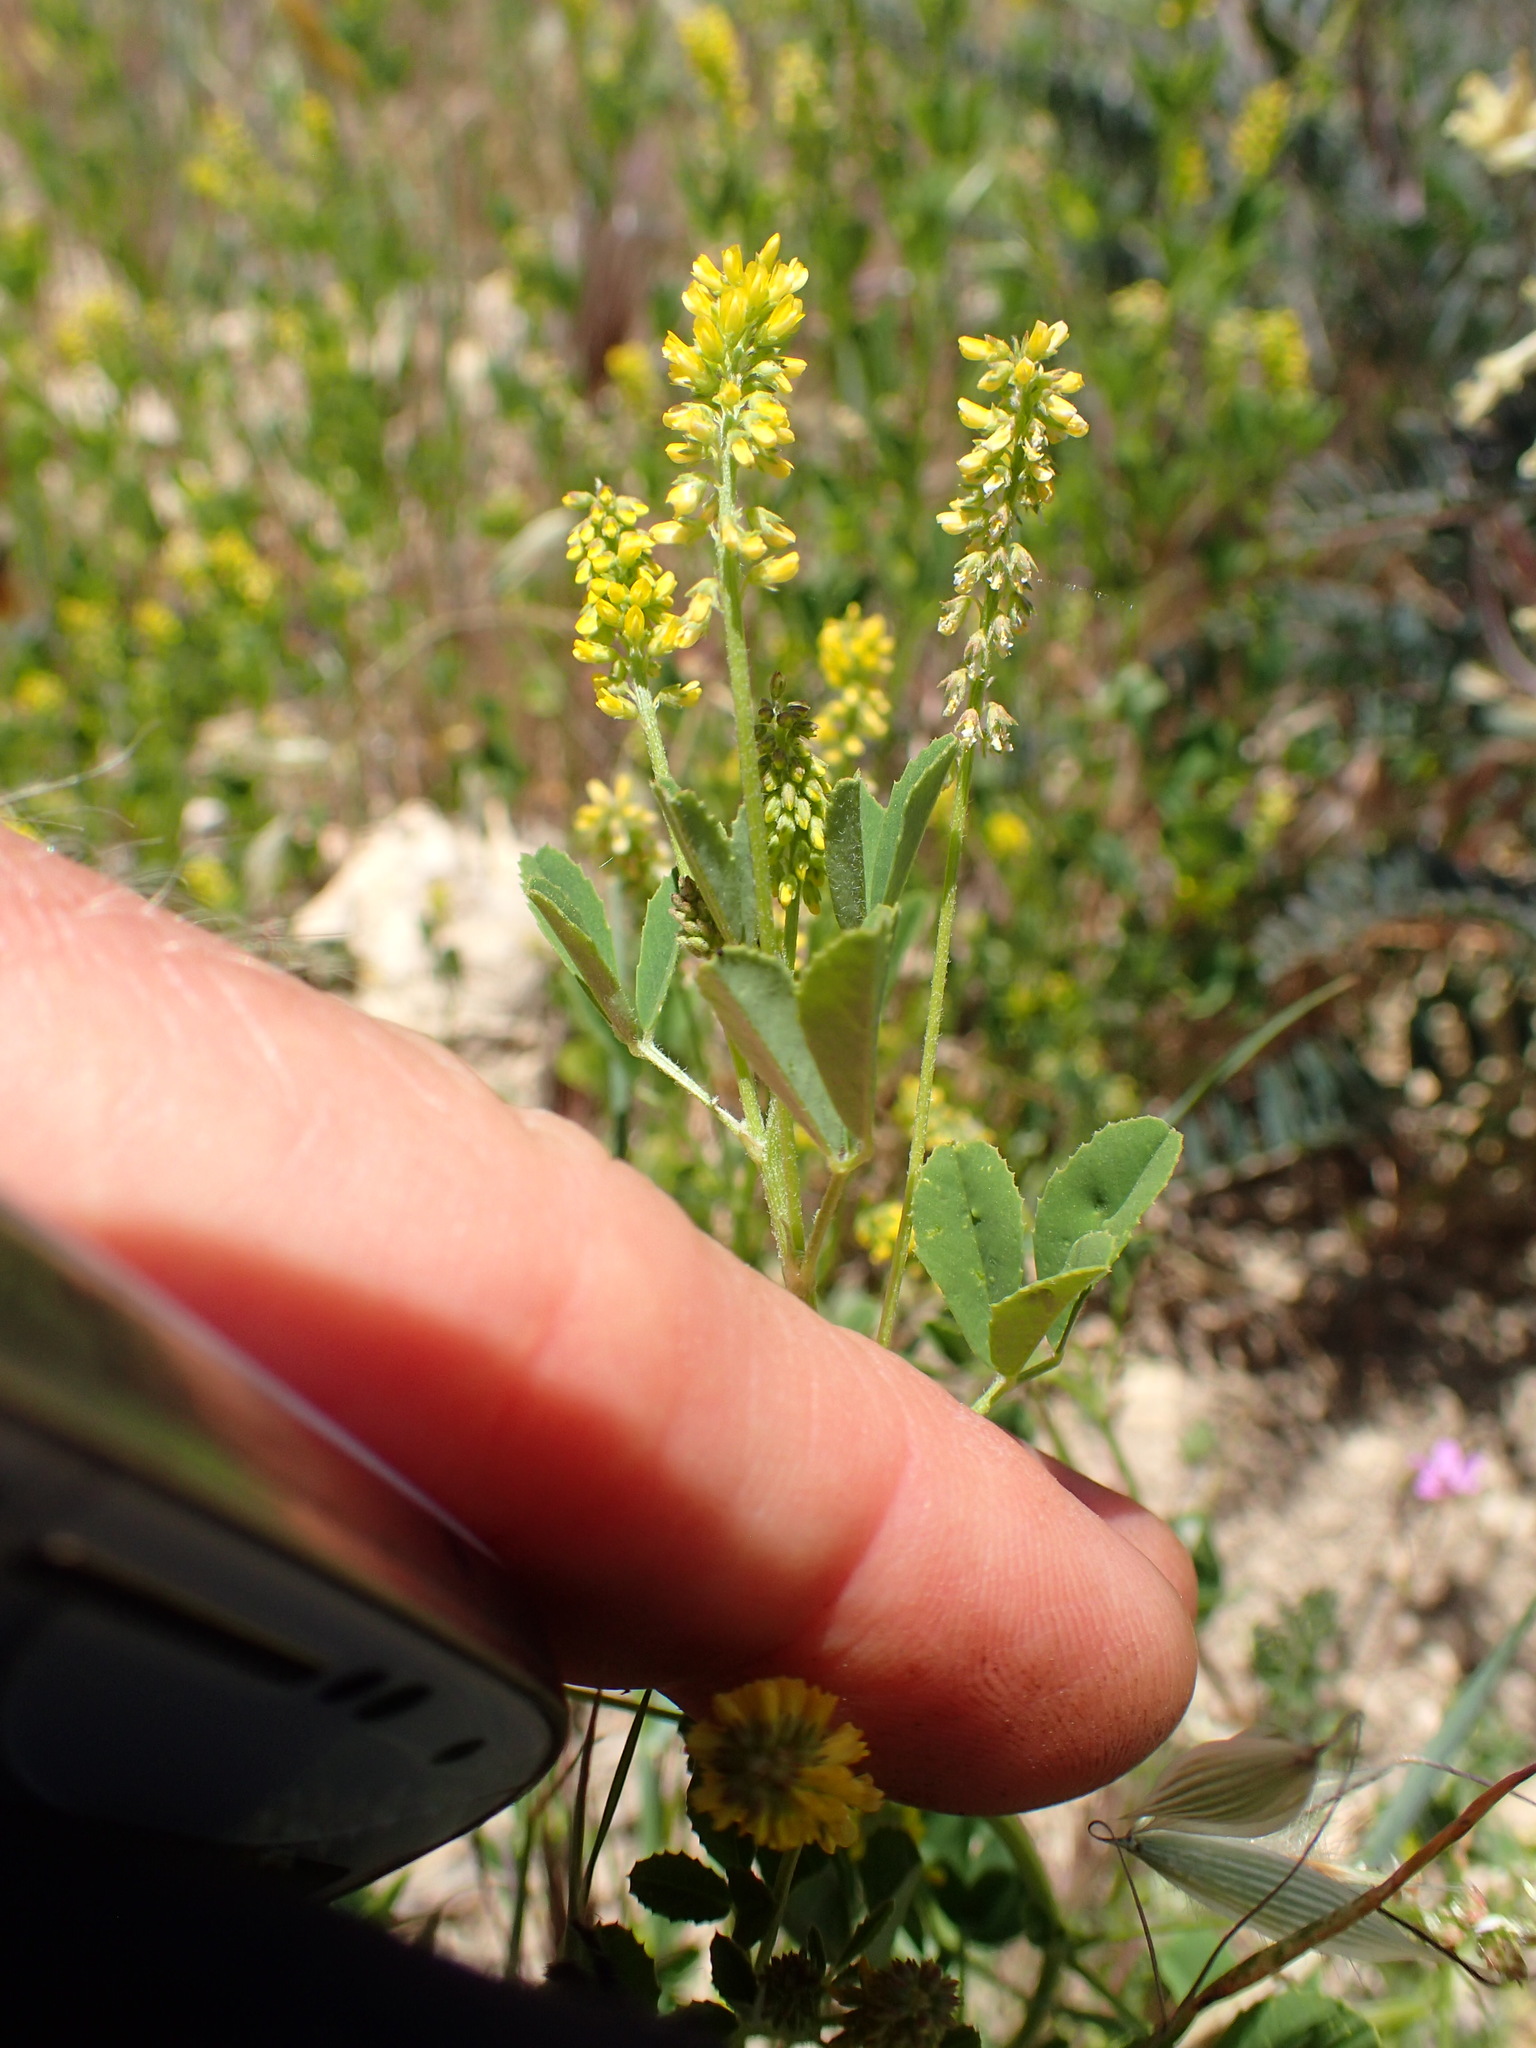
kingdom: Plantae
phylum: Tracheophyta
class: Magnoliopsida
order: Fabales
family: Fabaceae
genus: Melilotus
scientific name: Melilotus indicus
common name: Small melilot
